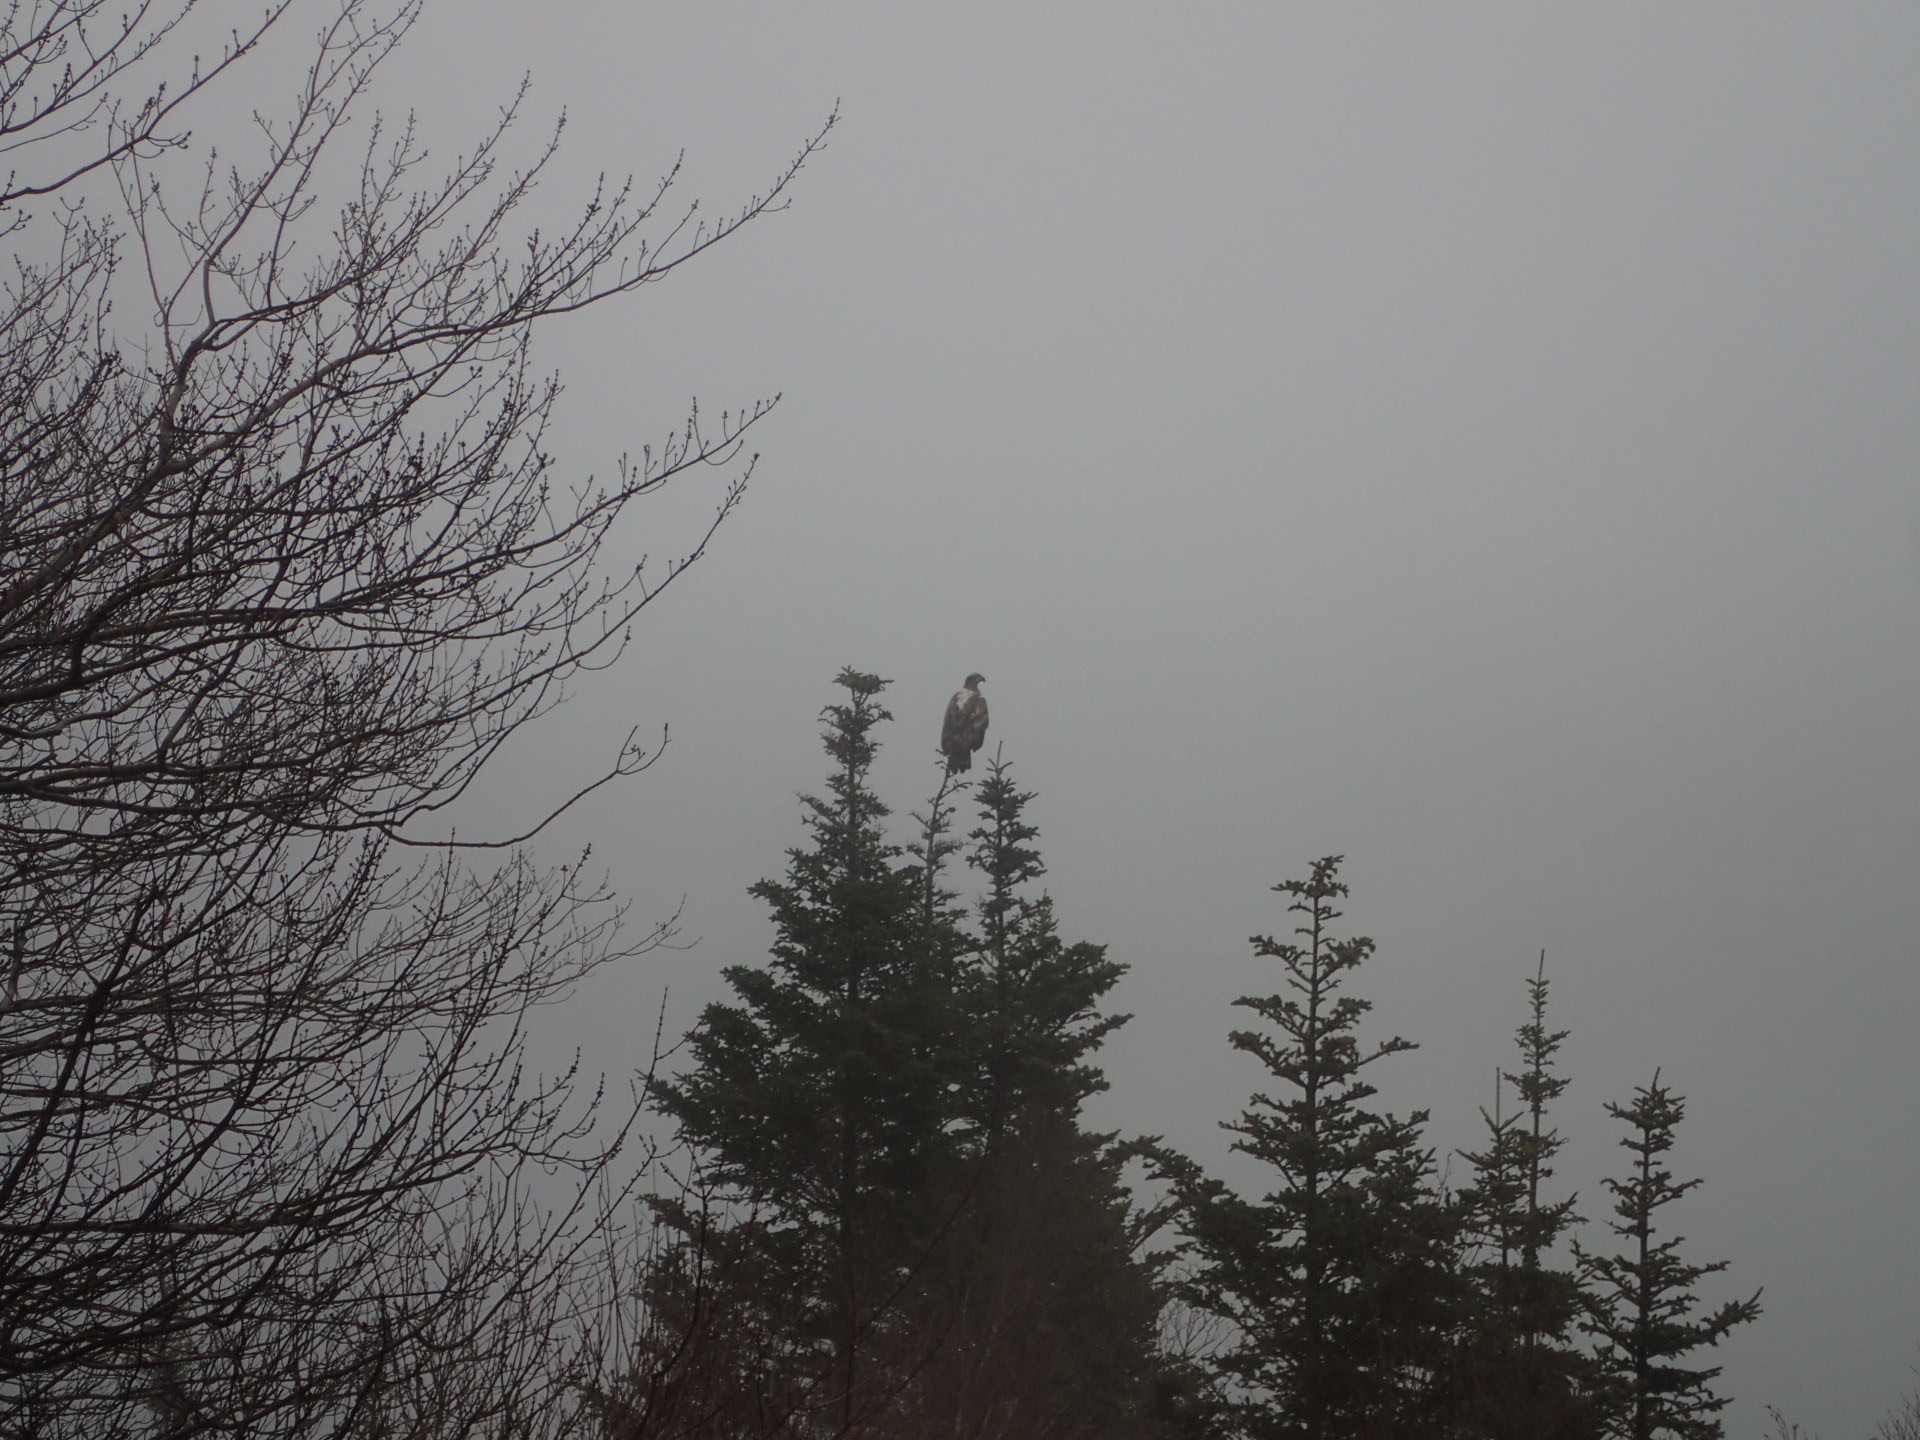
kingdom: Animalia
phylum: Chordata
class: Aves
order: Accipitriformes
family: Accipitridae
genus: Haliaeetus
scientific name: Haliaeetus leucocephalus
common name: Bald eagle
